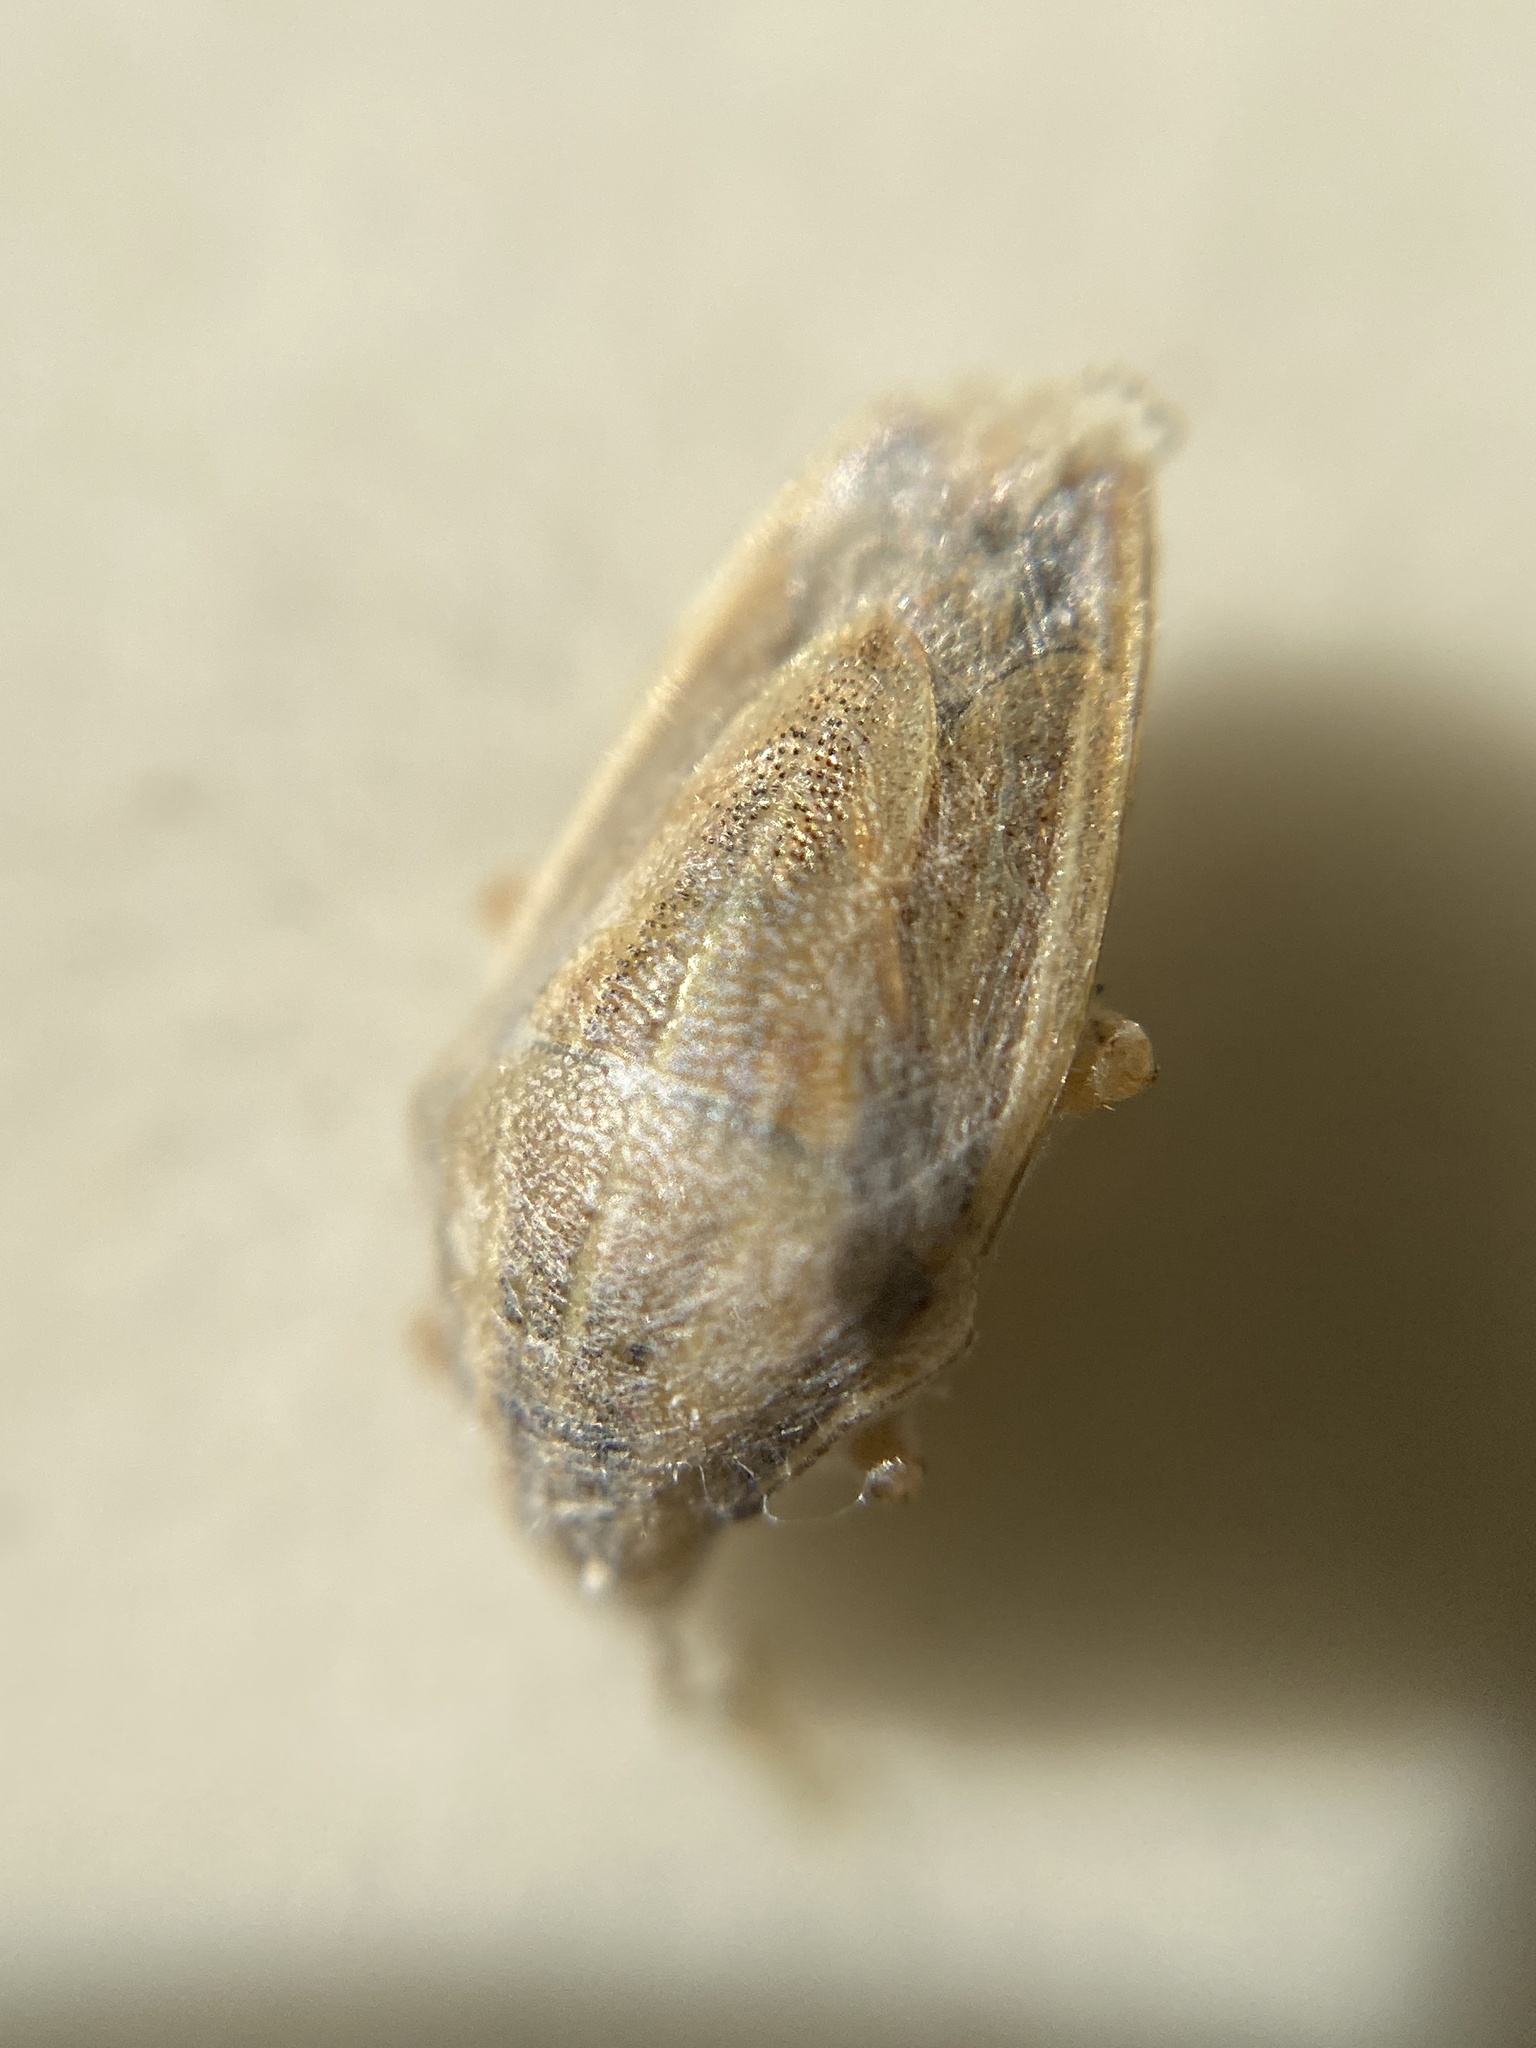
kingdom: Animalia
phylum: Arthropoda
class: Insecta
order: Hemiptera
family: Pentatomidae
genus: Aelia
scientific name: Aelia acuminata
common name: Bishop's mitre
